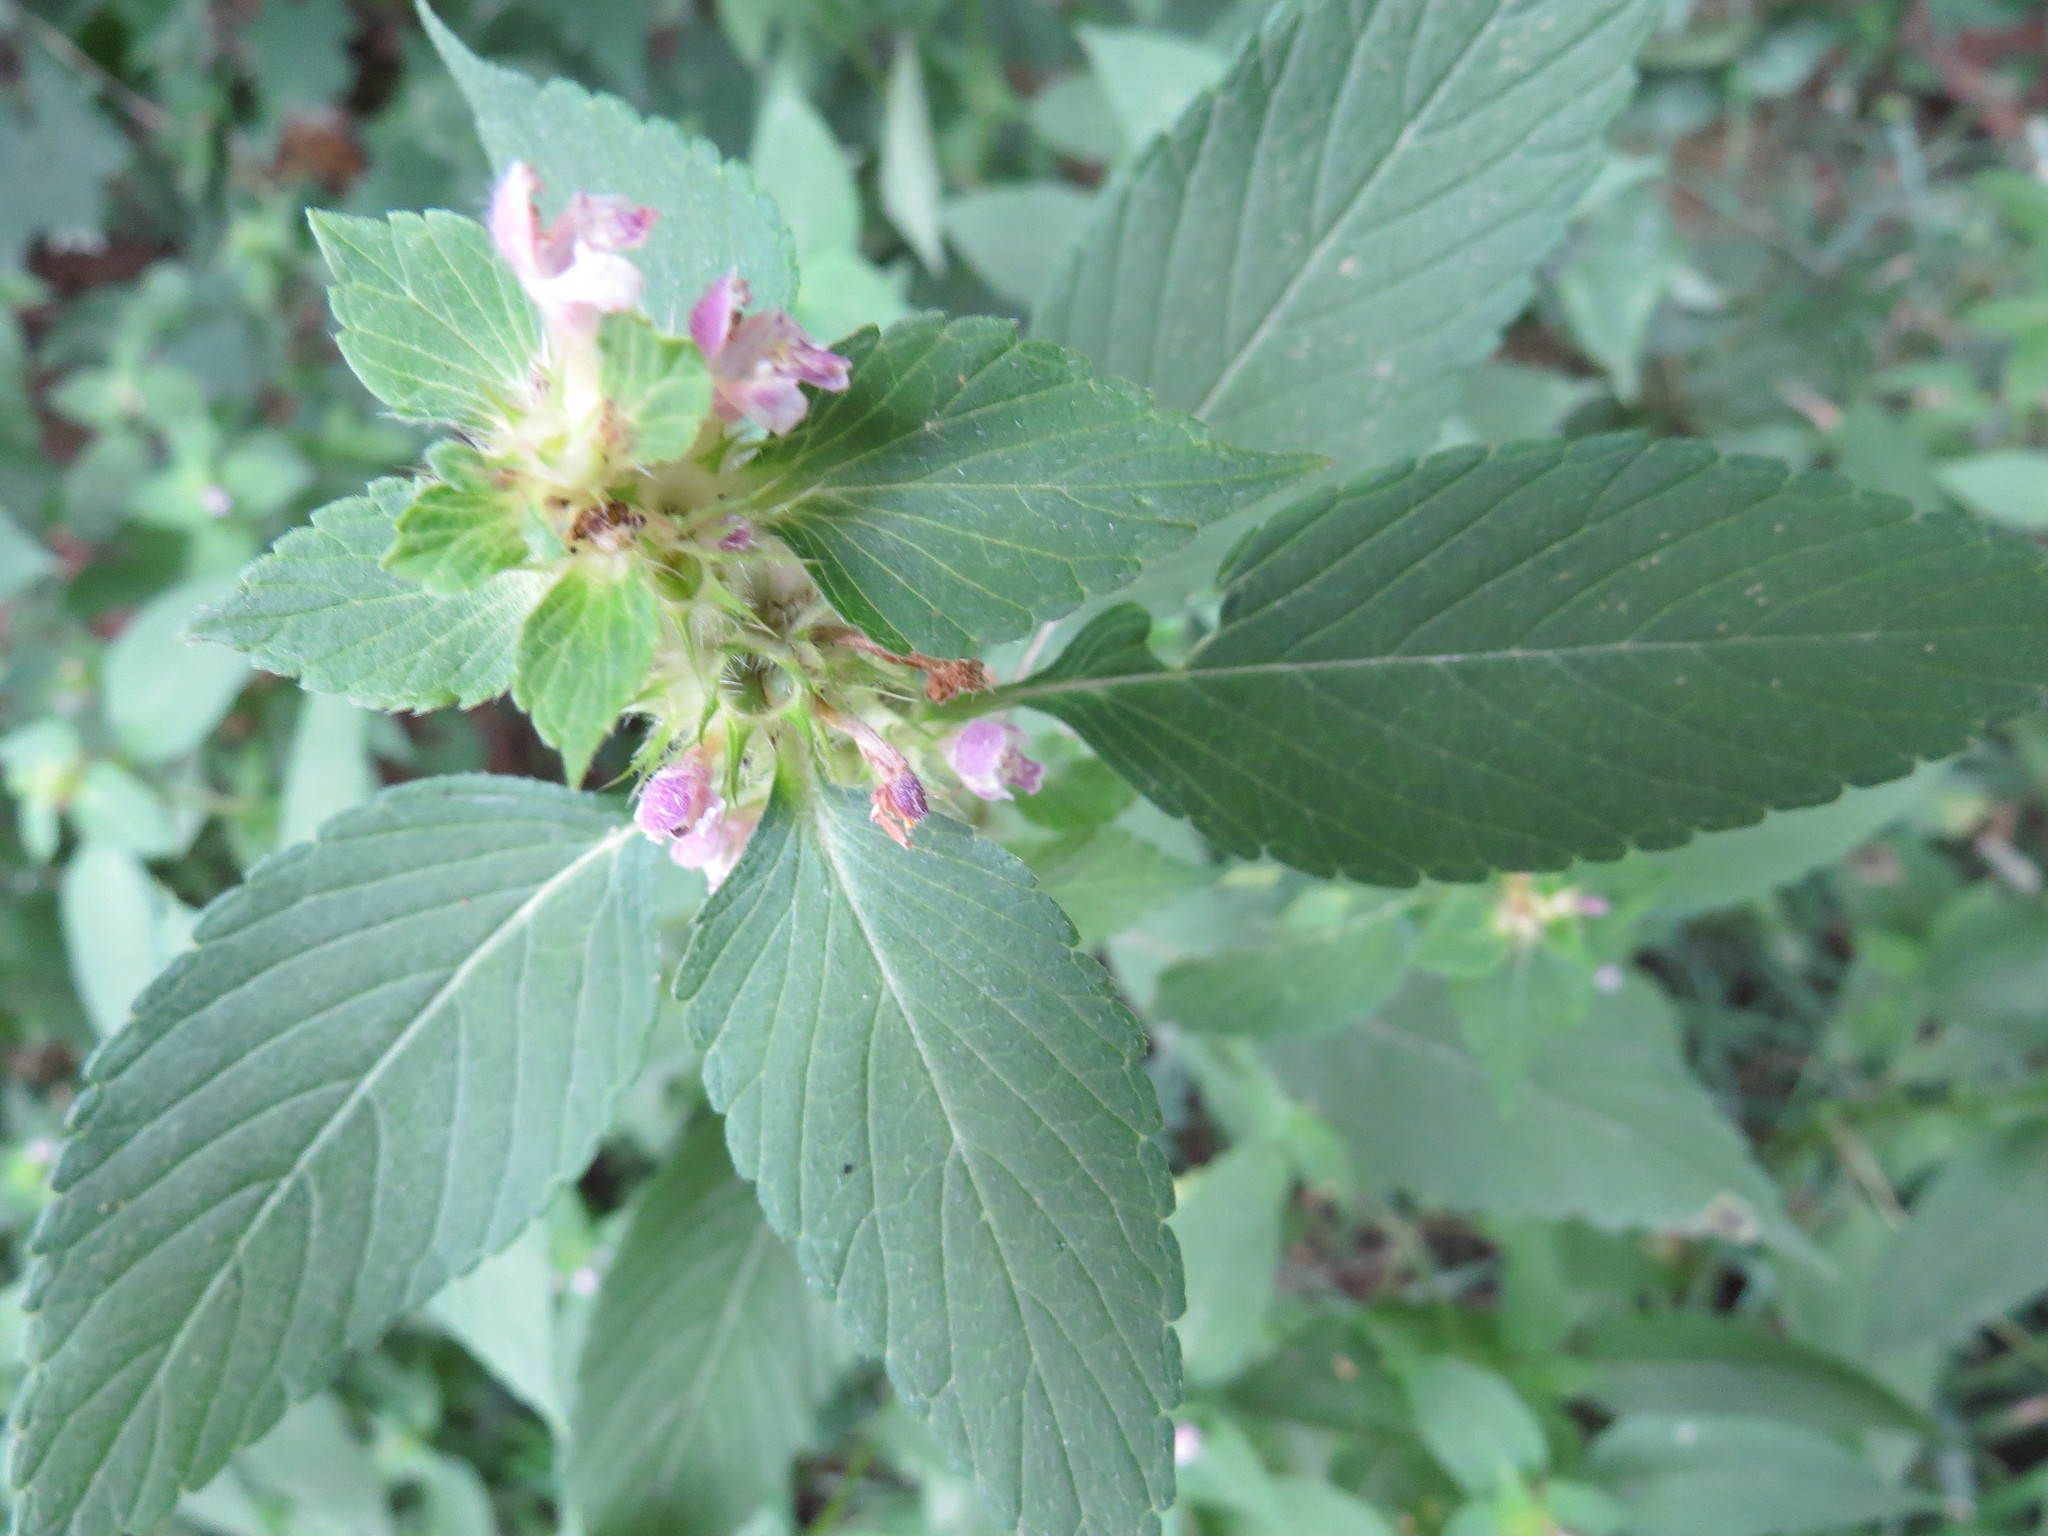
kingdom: Plantae
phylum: Tracheophyta
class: Magnoliopsida
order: Lamiales
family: Lamiaceae
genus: Galeopsis
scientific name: Galeopsis bifida
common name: Bifid hemp-nettle
